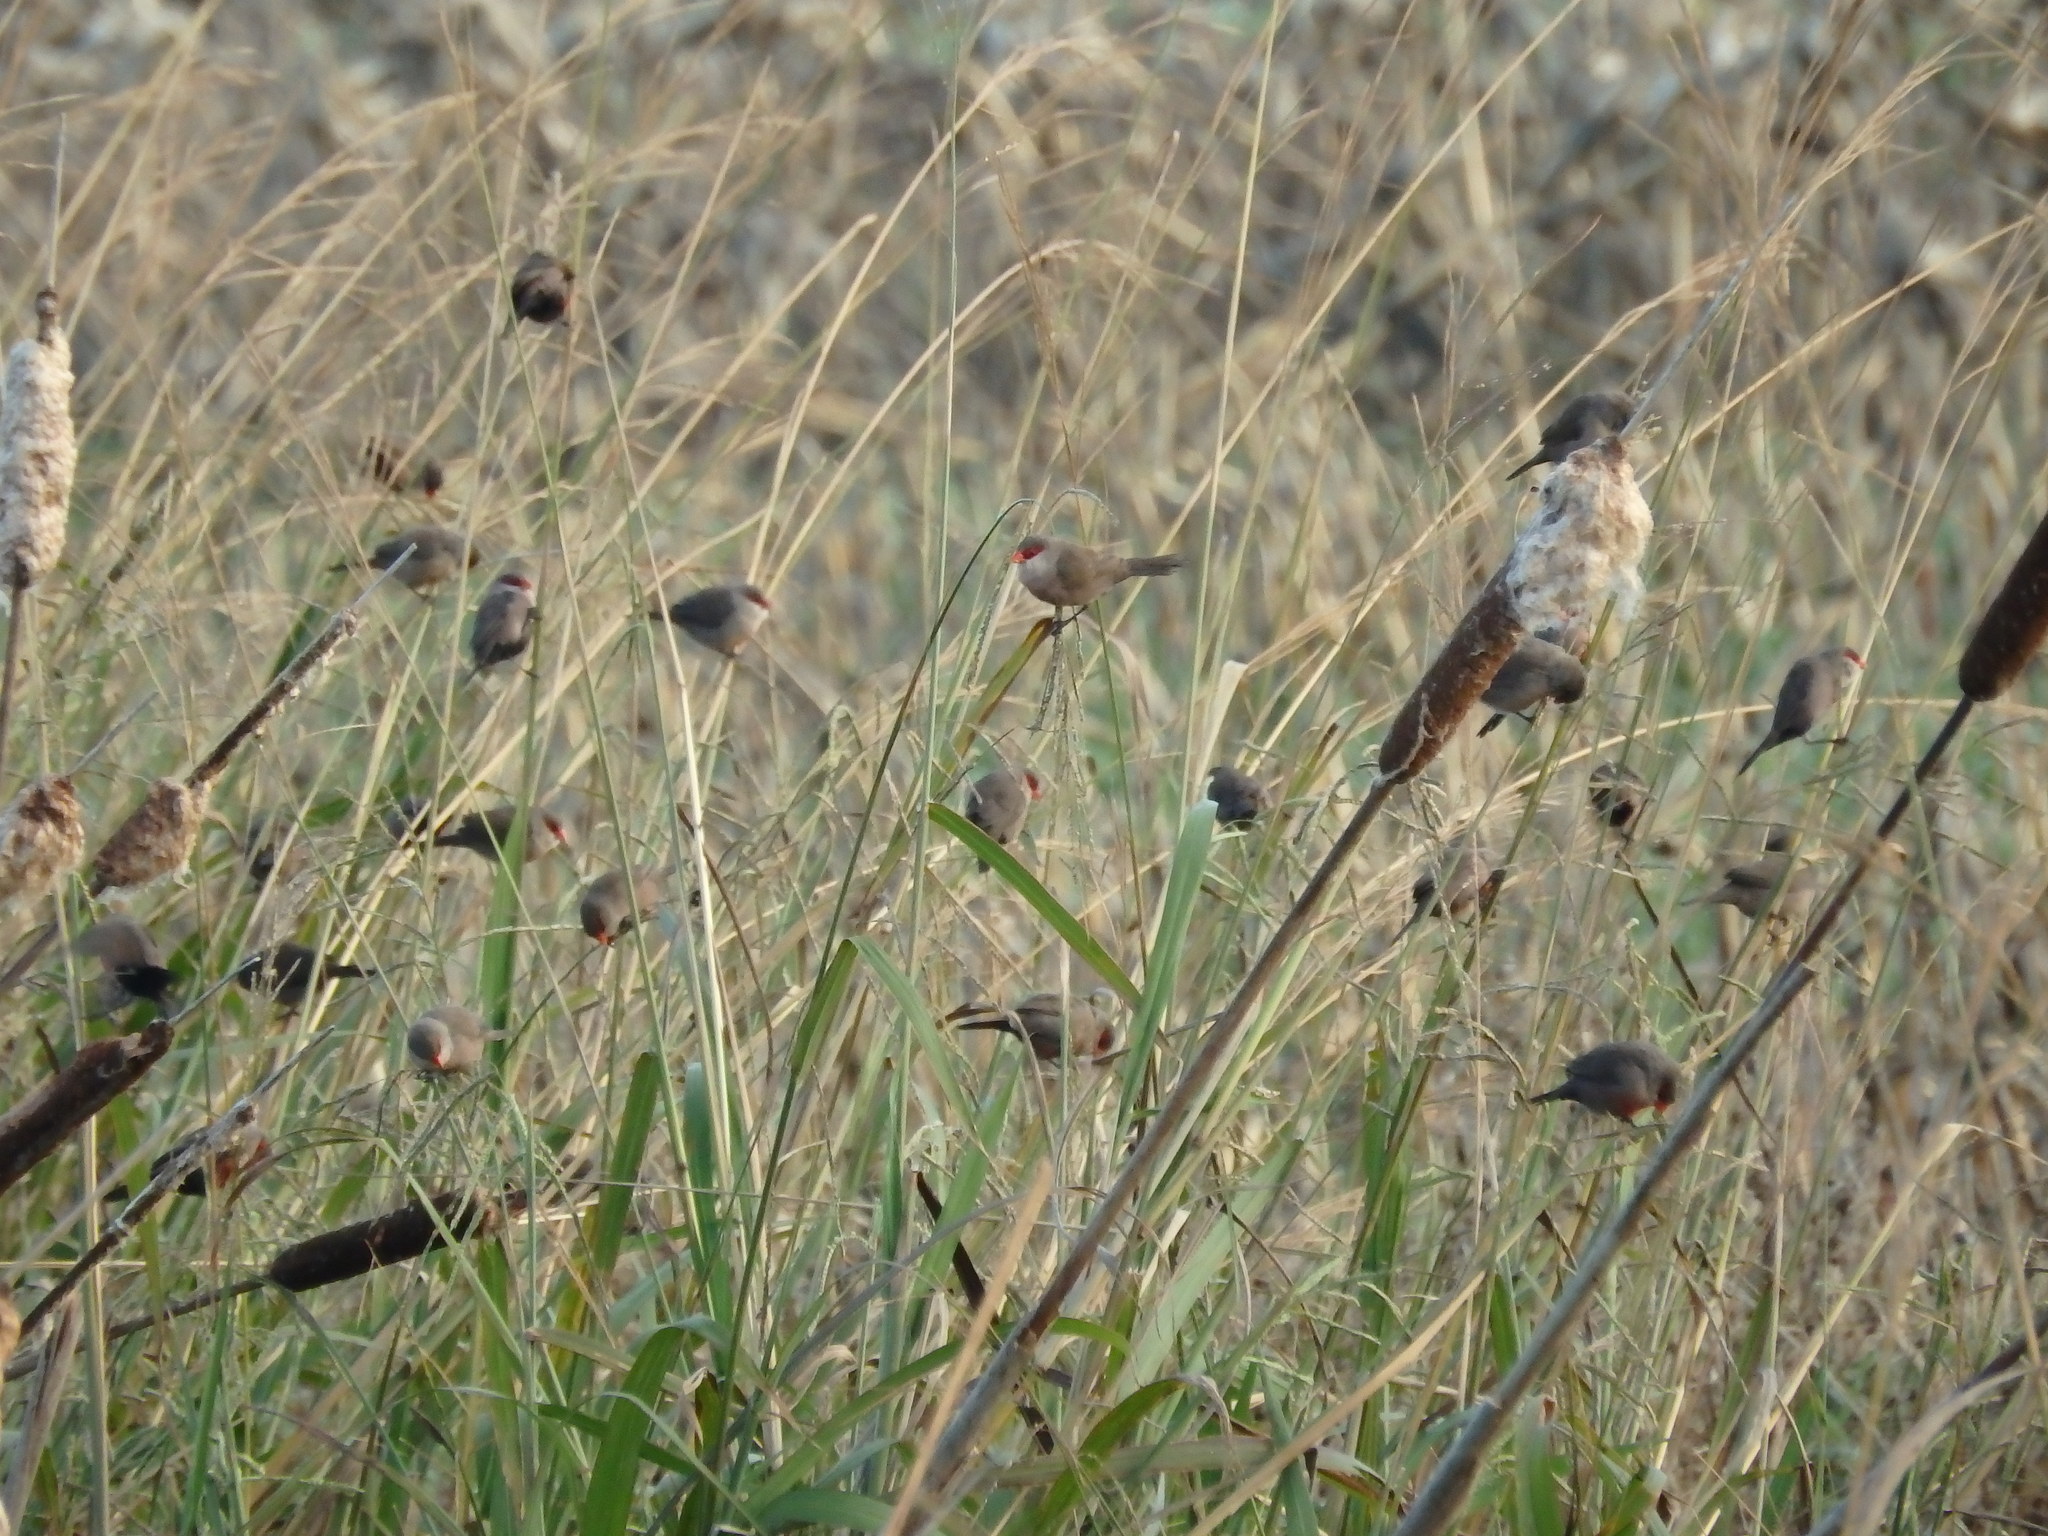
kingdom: Animalia
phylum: Chordata
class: Aves
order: Passeriformes
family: Estrildidae
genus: Estrilda
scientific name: Estrilda astrild
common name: Common waxbill
